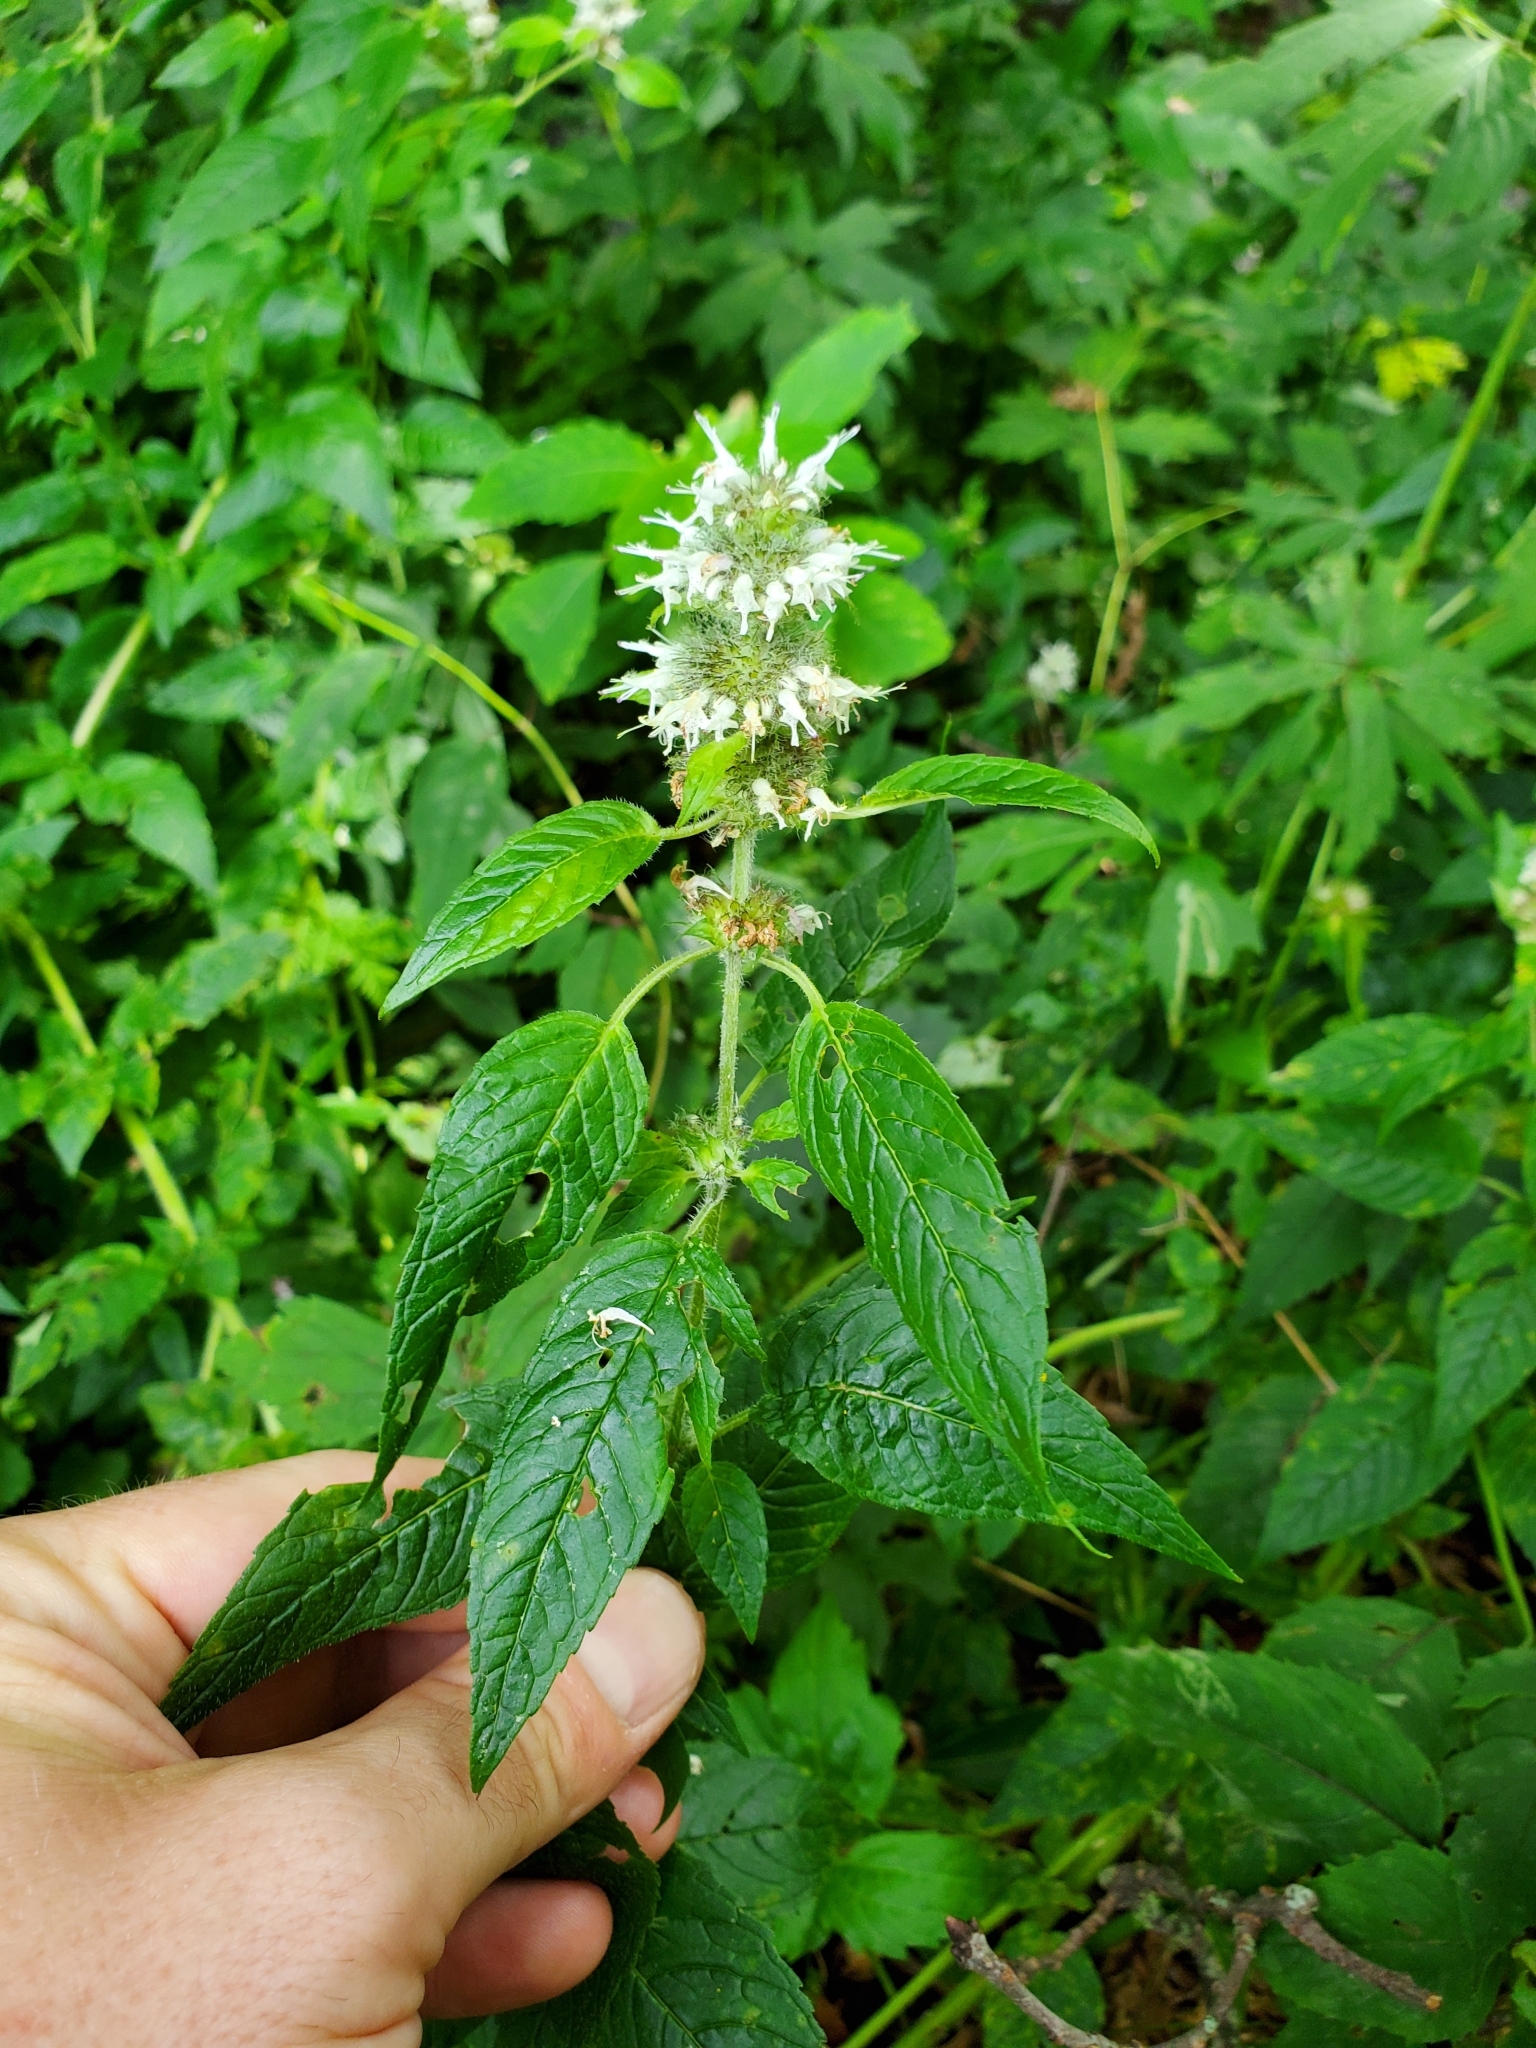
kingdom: Plantae
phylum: Tracheophyta
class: Magnoliopsida
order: Lamiales
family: Lamiaceae
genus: Blephilia
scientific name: Blephilia hirsuta
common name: Hairy blephilia
